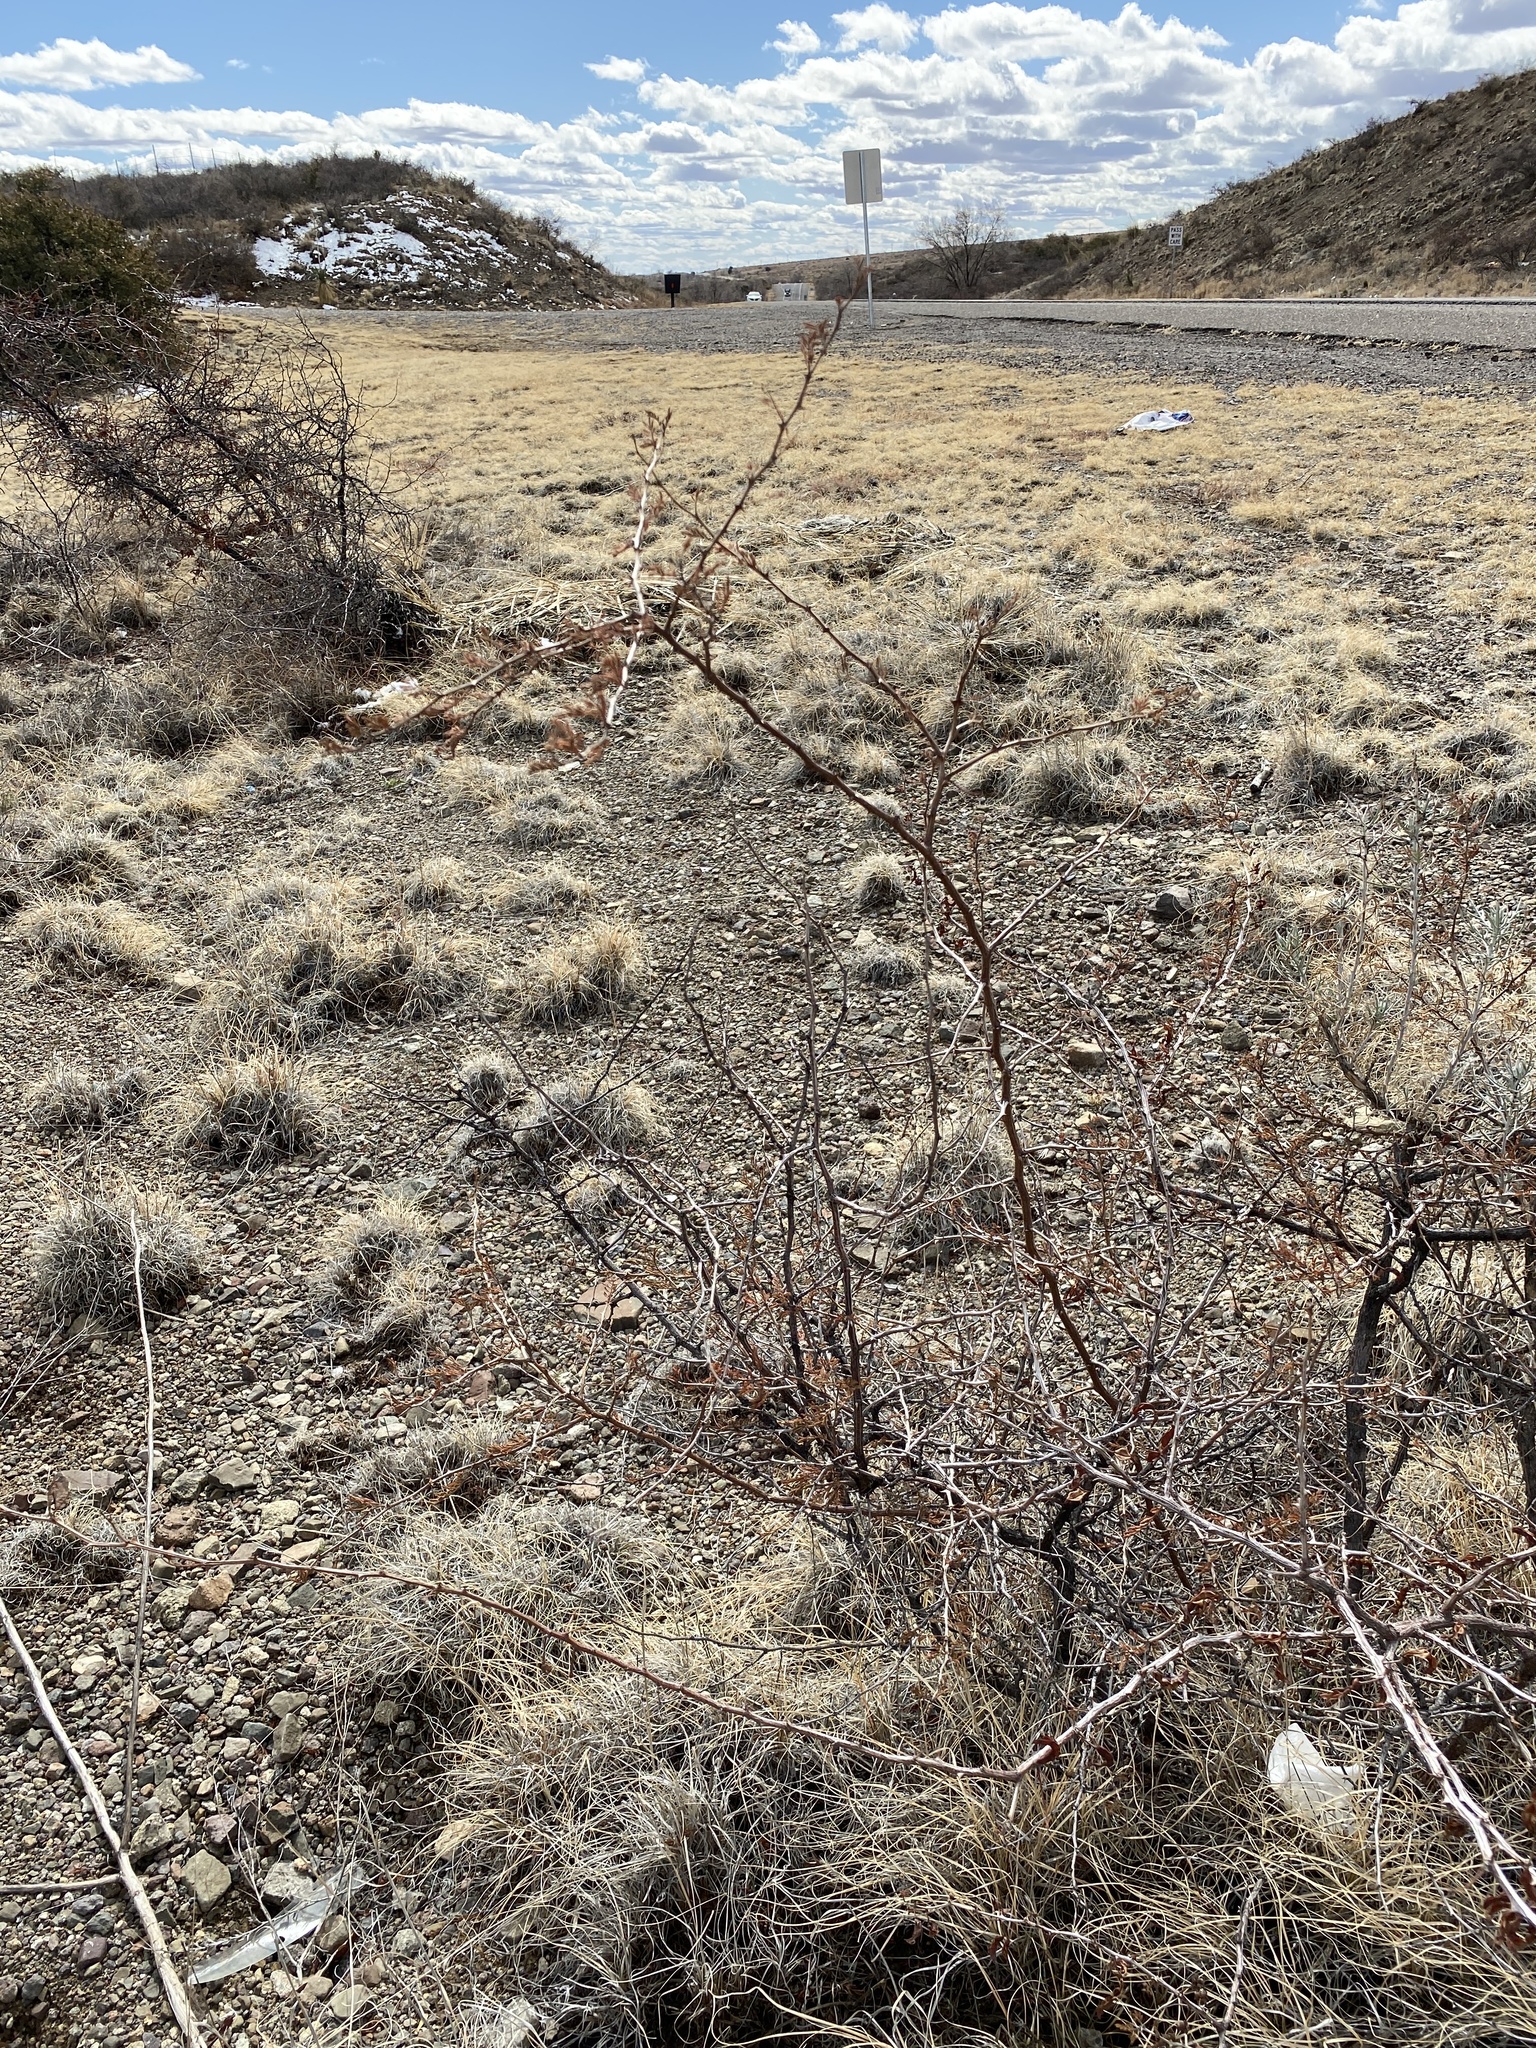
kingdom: Plantae
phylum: Tracheophyta
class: Magnoliopsida
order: Fabales
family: Fabaceae
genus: Mimosa
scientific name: Mimosa aculeaticarpa
